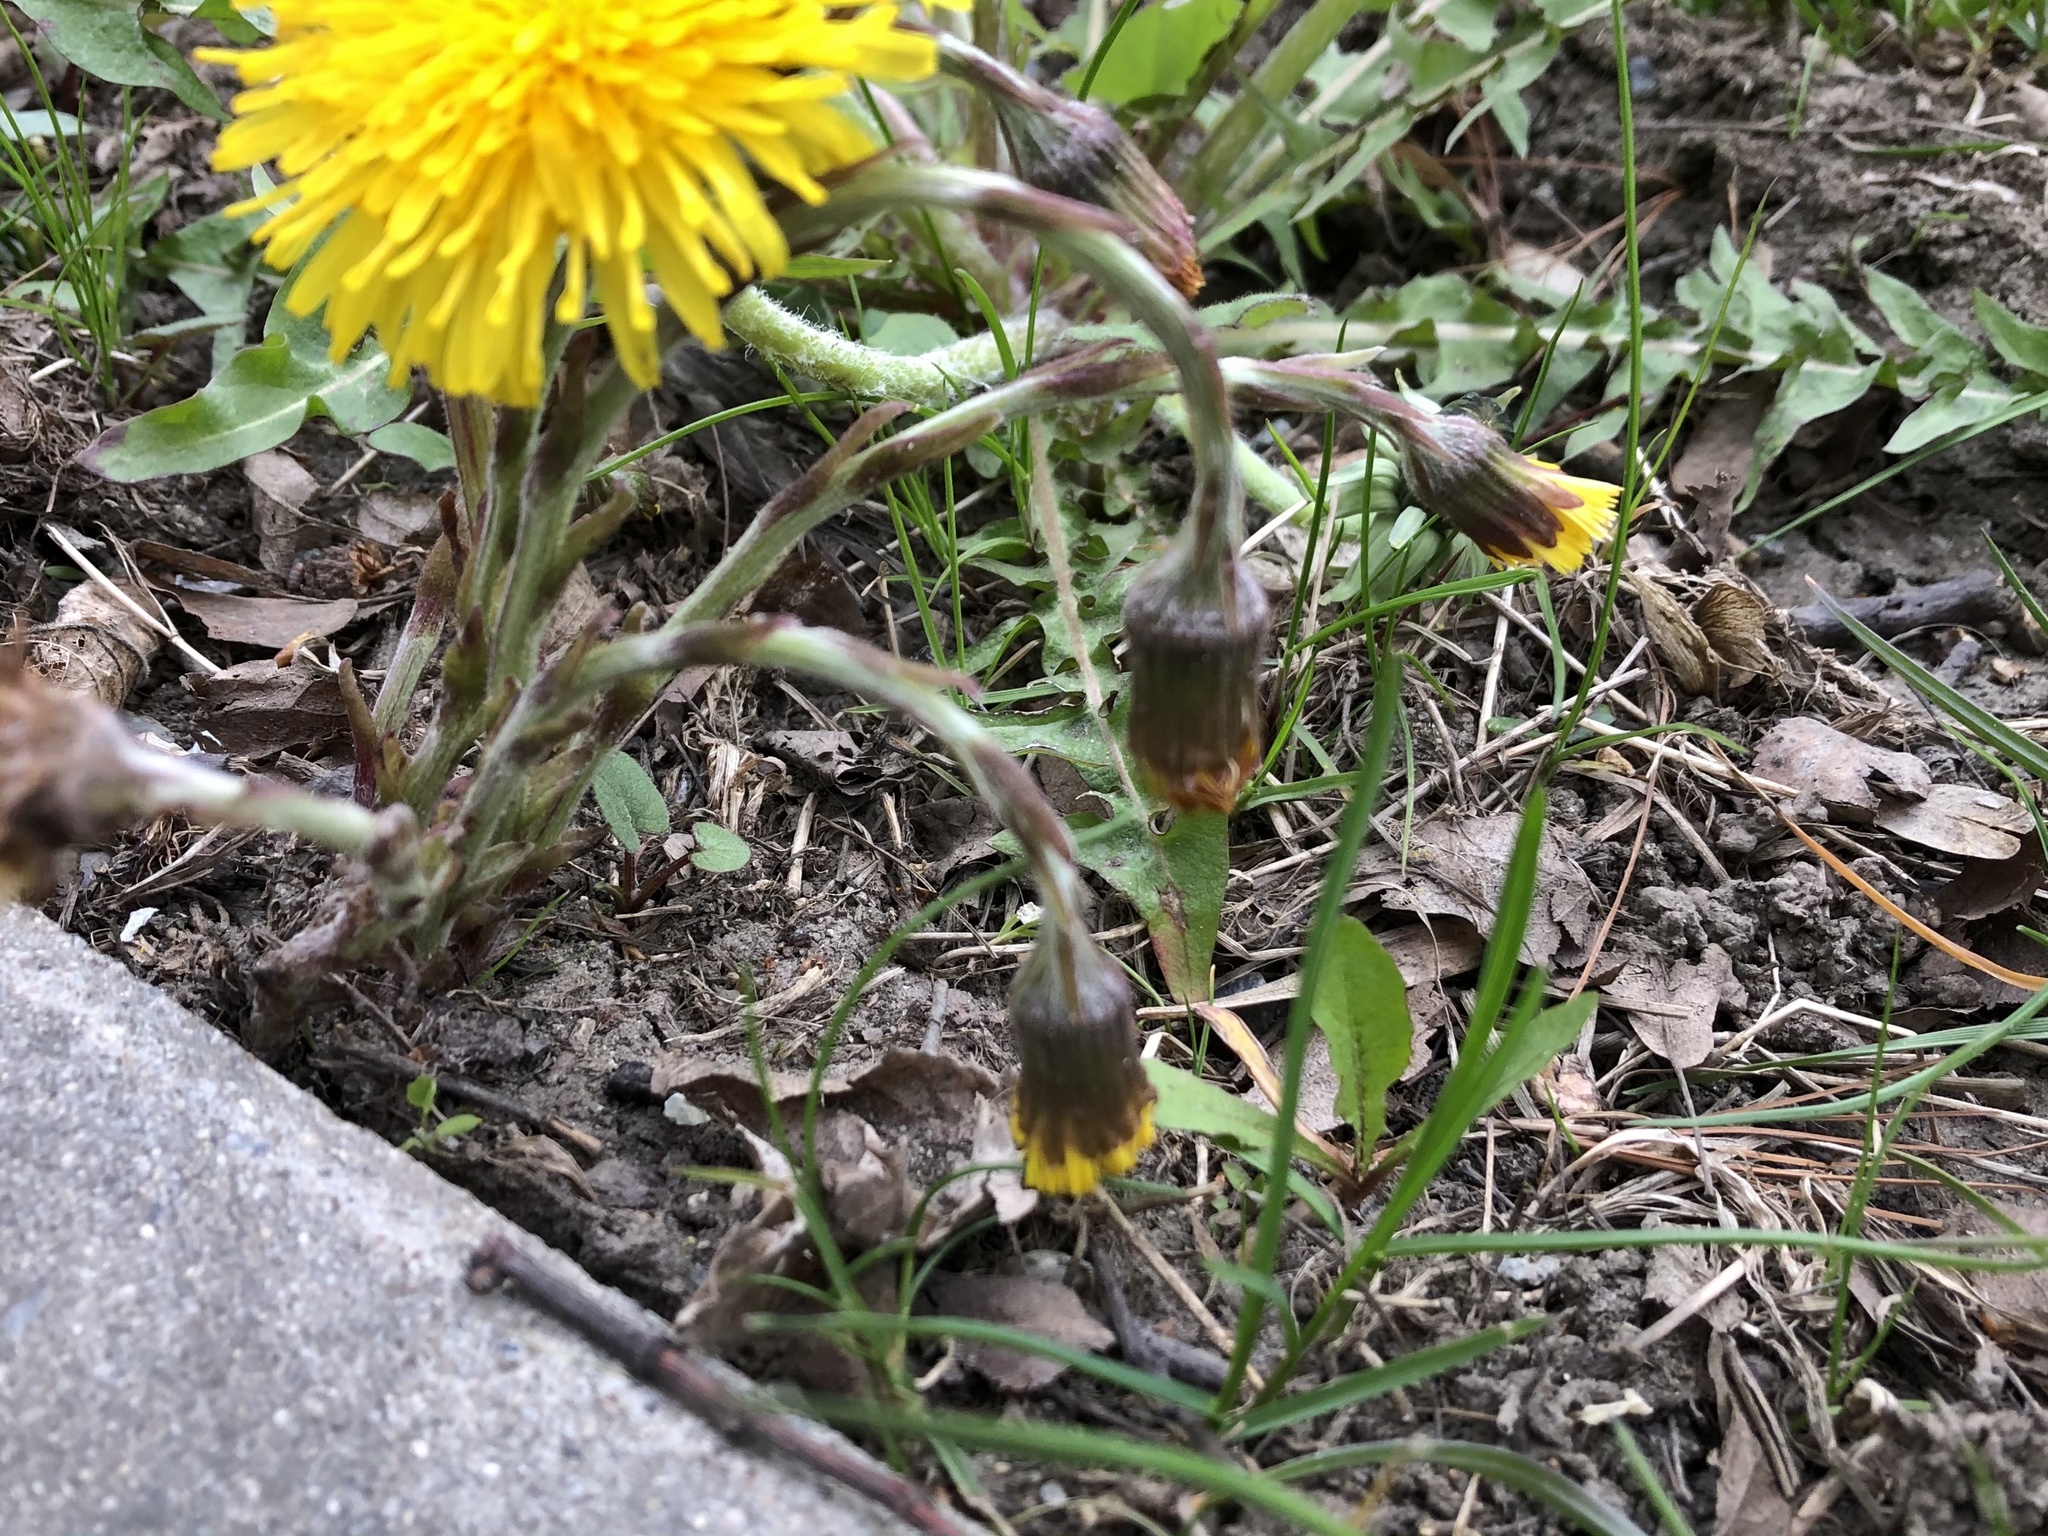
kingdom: Plantae
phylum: Tracheophyta
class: Magnoliopsida
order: Asterales
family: Asteraceae
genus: Tussilago
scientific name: Tussilago farfara
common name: Coltsfoot
